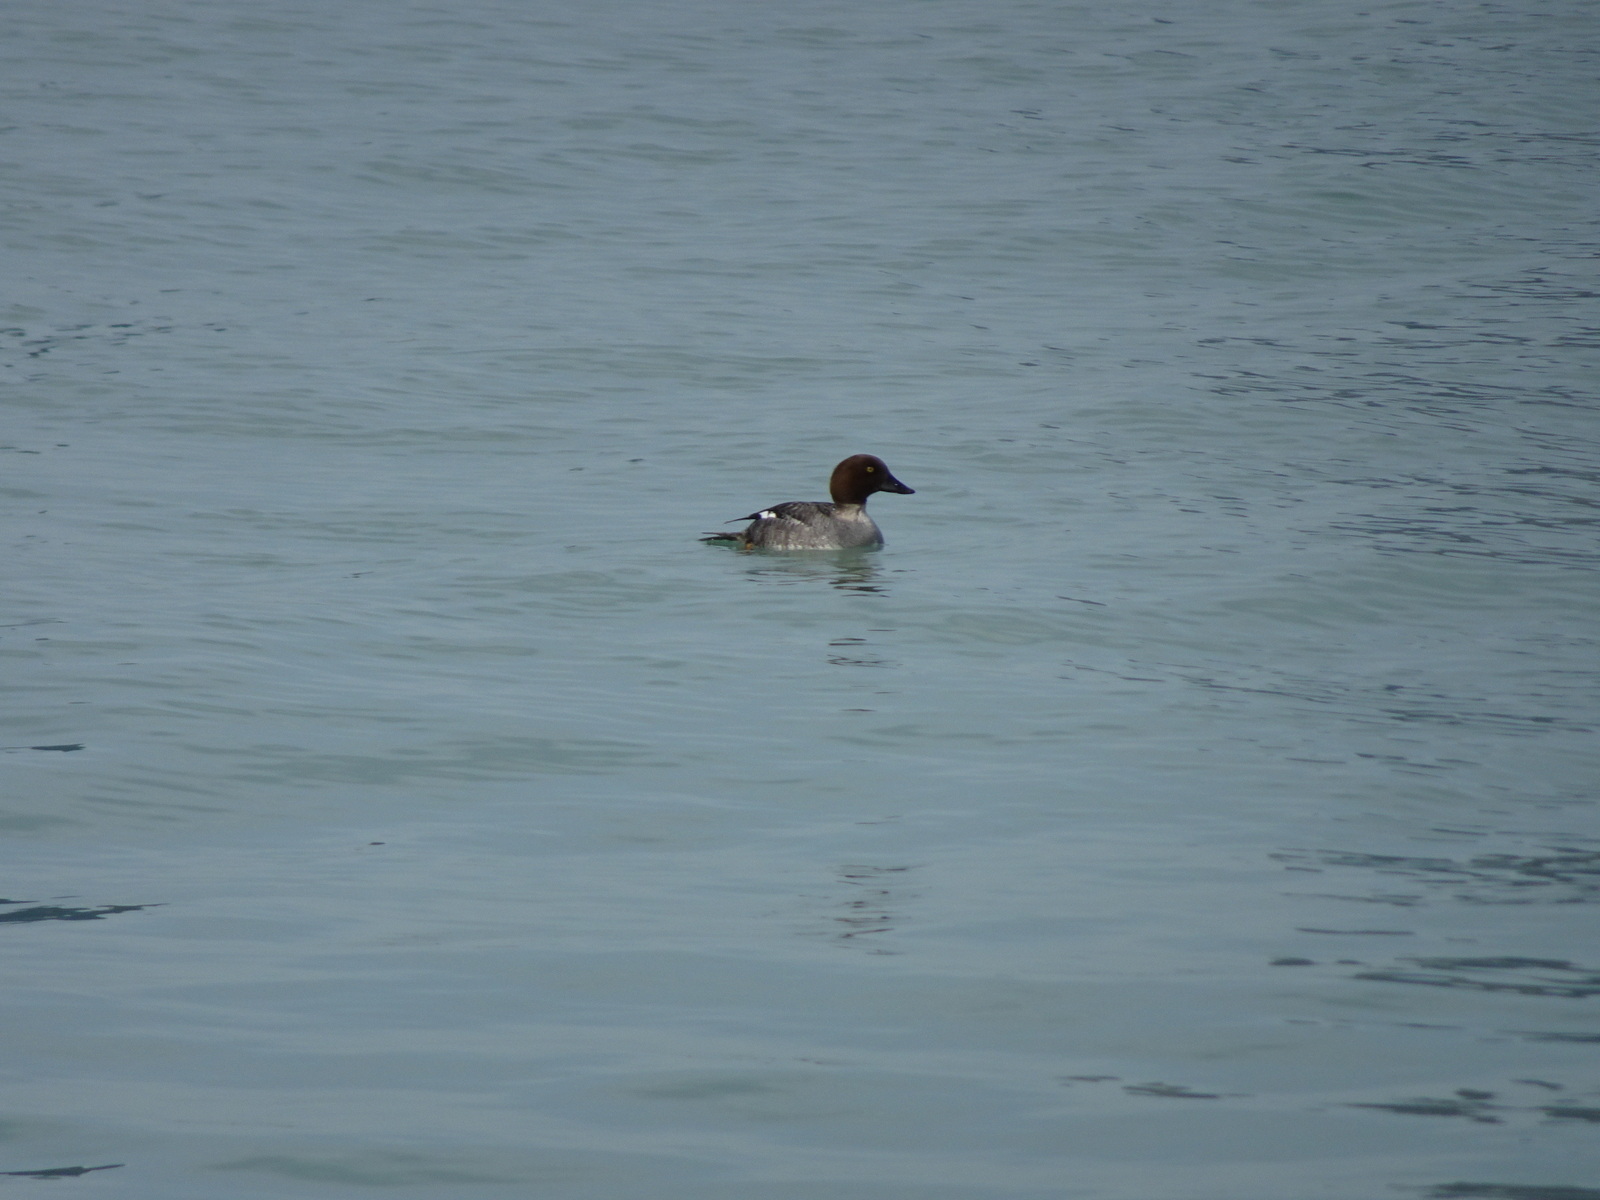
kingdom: Animalia
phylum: Chordata
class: Aves
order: Anseriformes
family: Anatidae
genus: Bucephala
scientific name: Bucephala clangula
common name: Common goldeneye
